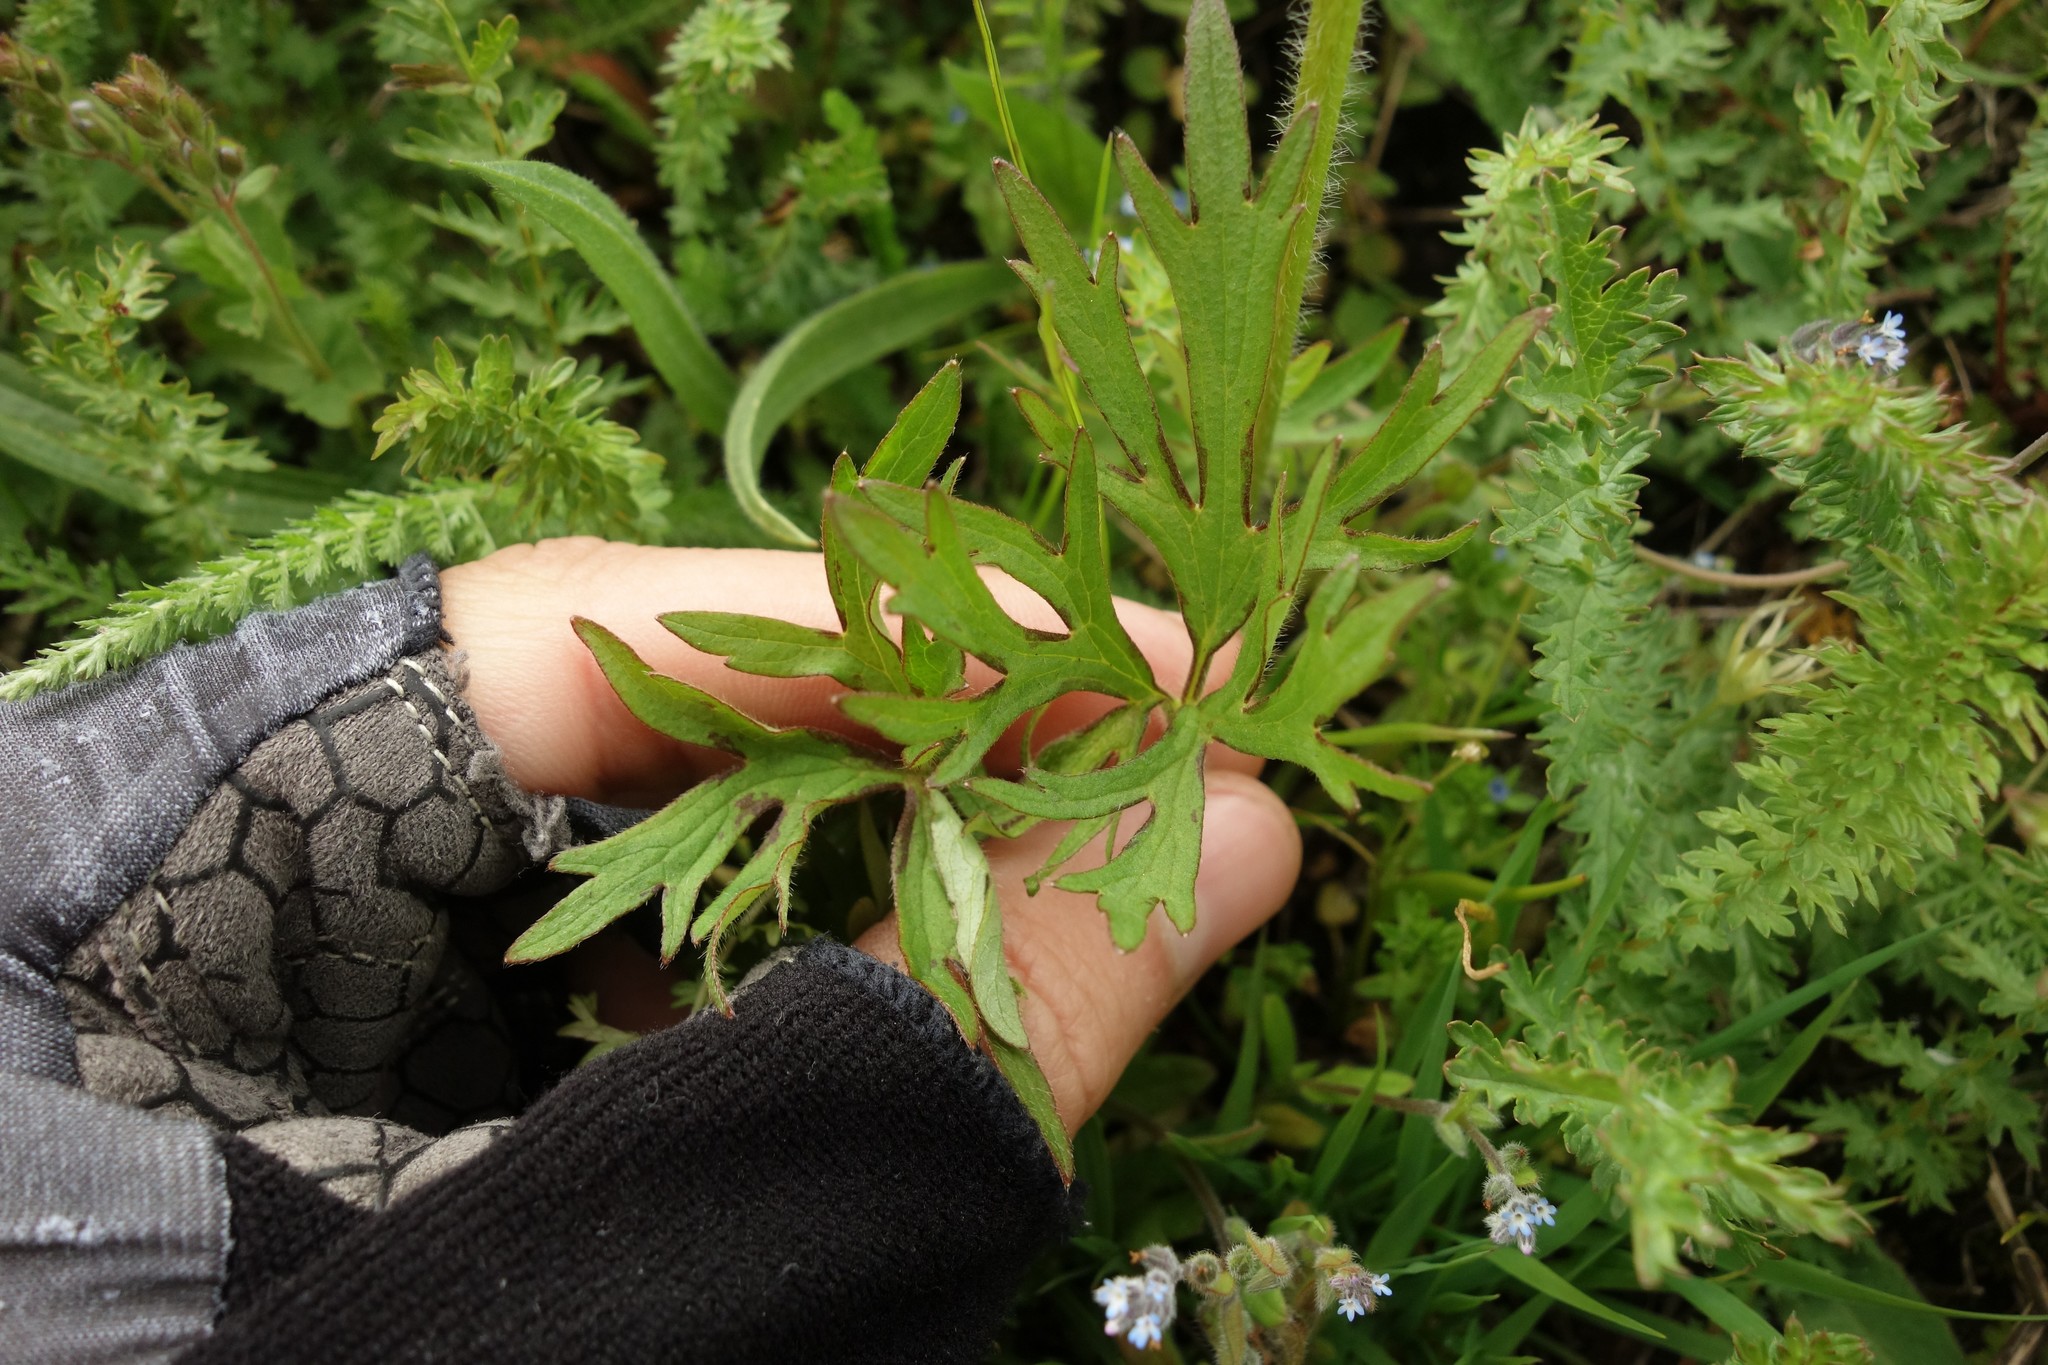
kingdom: Plantae
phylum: Tracheophyta
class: Magnoliopsida
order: Ranunculales
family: Ranunculaceae
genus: Ranunculus
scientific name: Ranunculus polyanthemos
